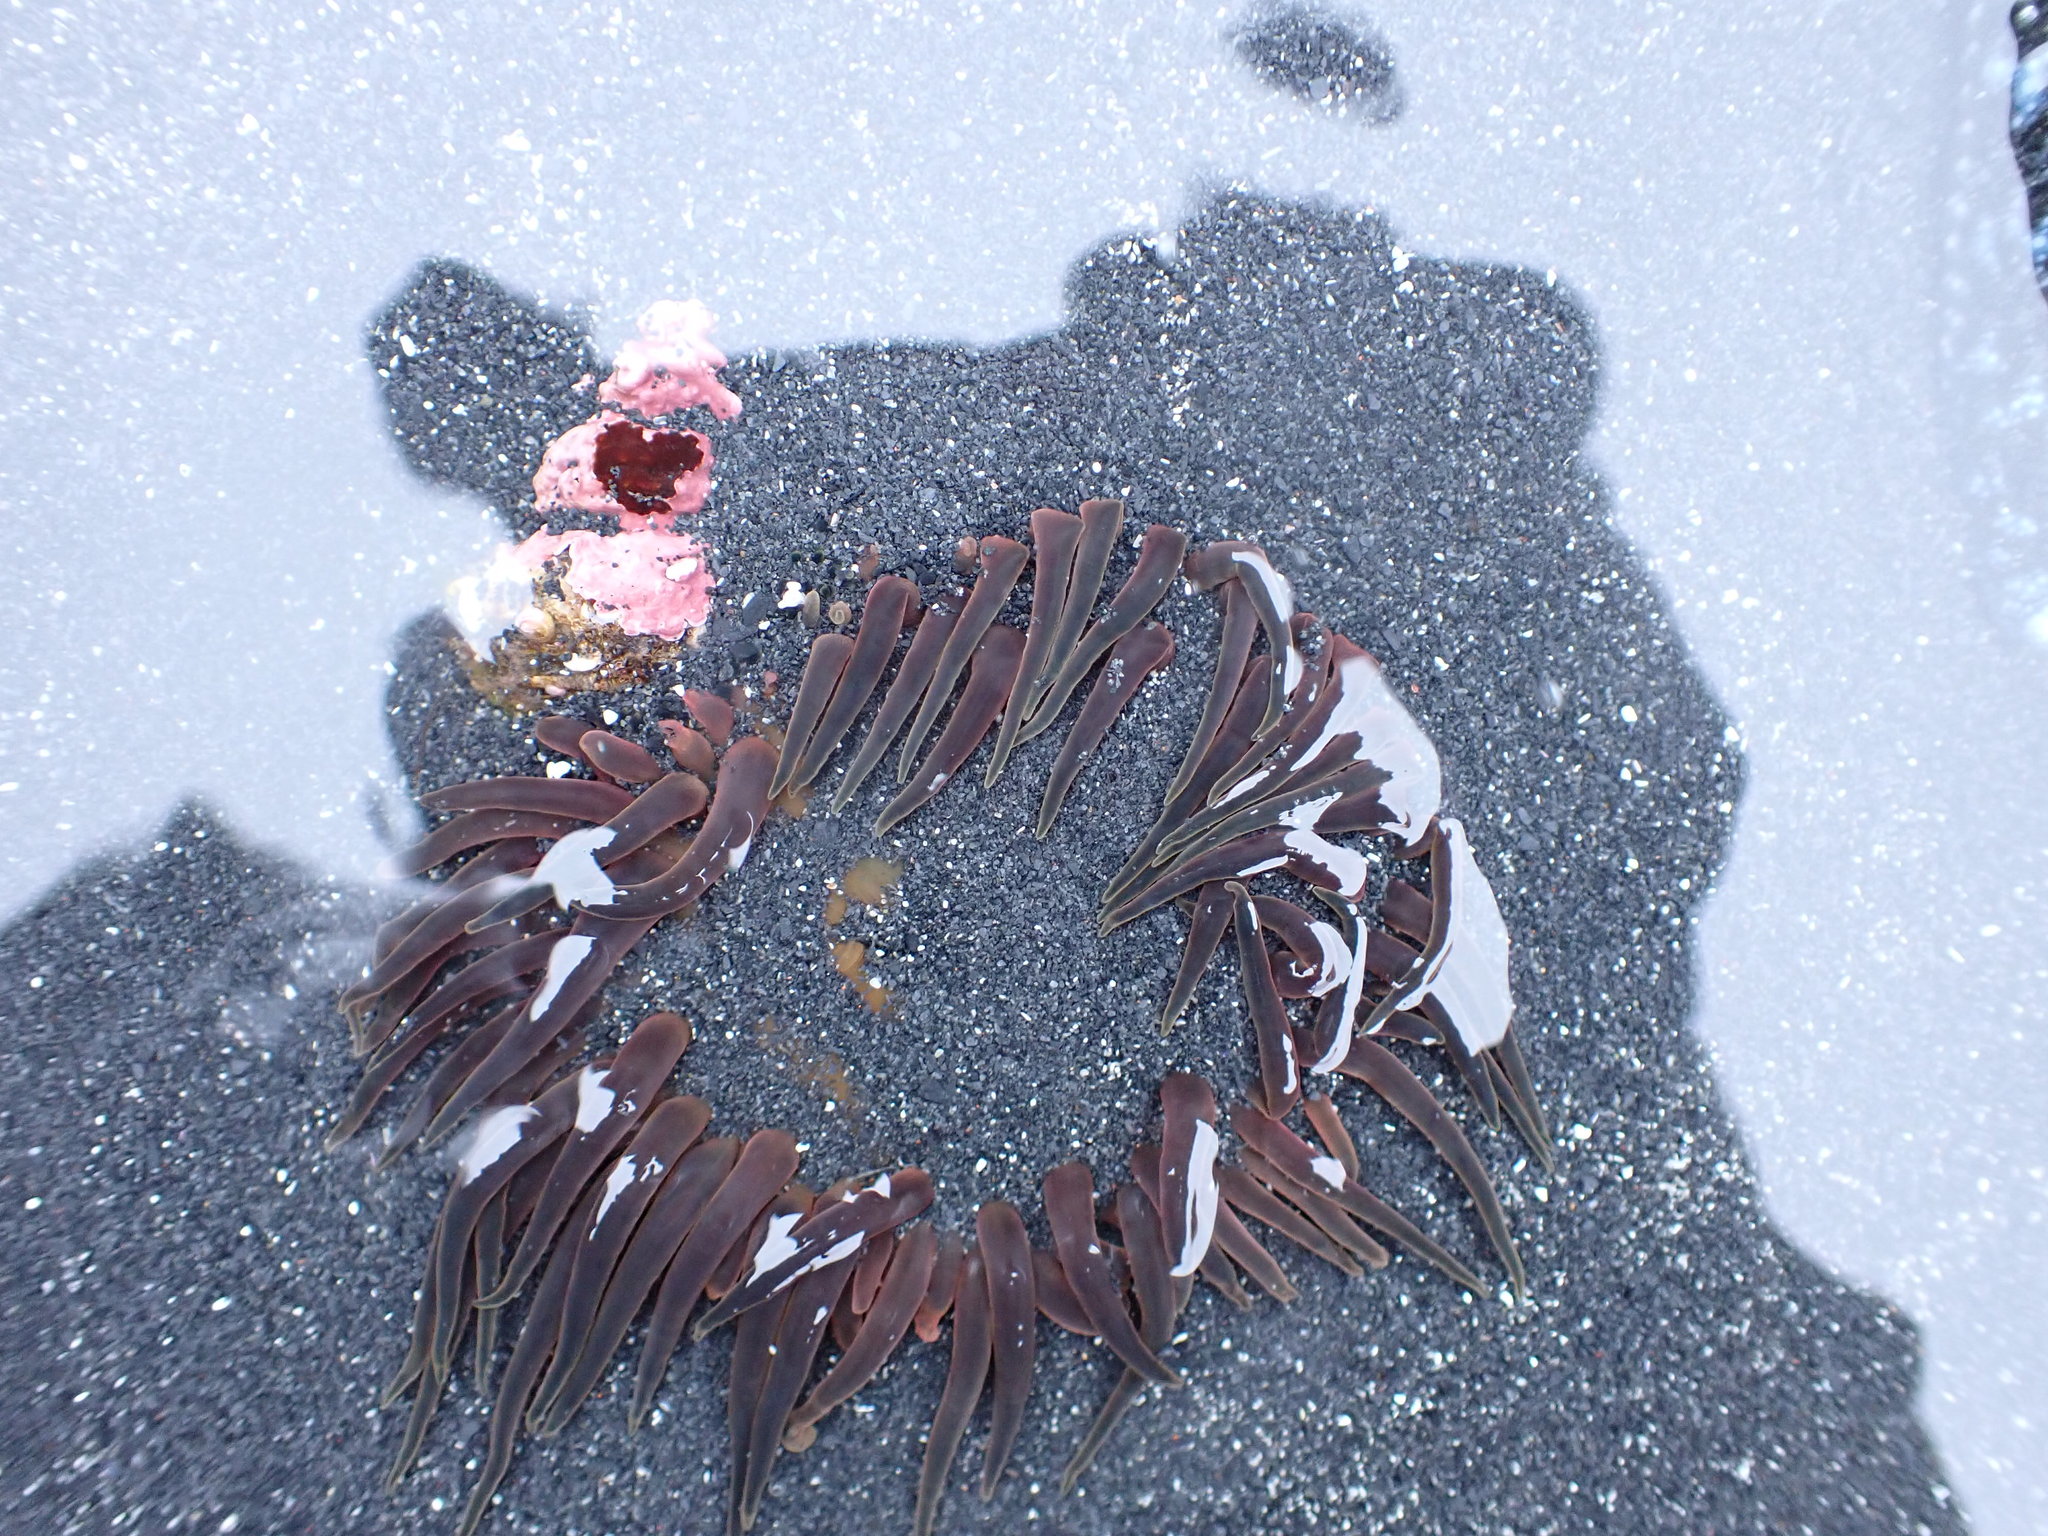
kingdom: Animalia
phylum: Cnidaria
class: Anthozoa
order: Actiniaria
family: Actiniidae
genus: Anthopleura
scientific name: Anthopleura artemisia
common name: Buried sea anemone
